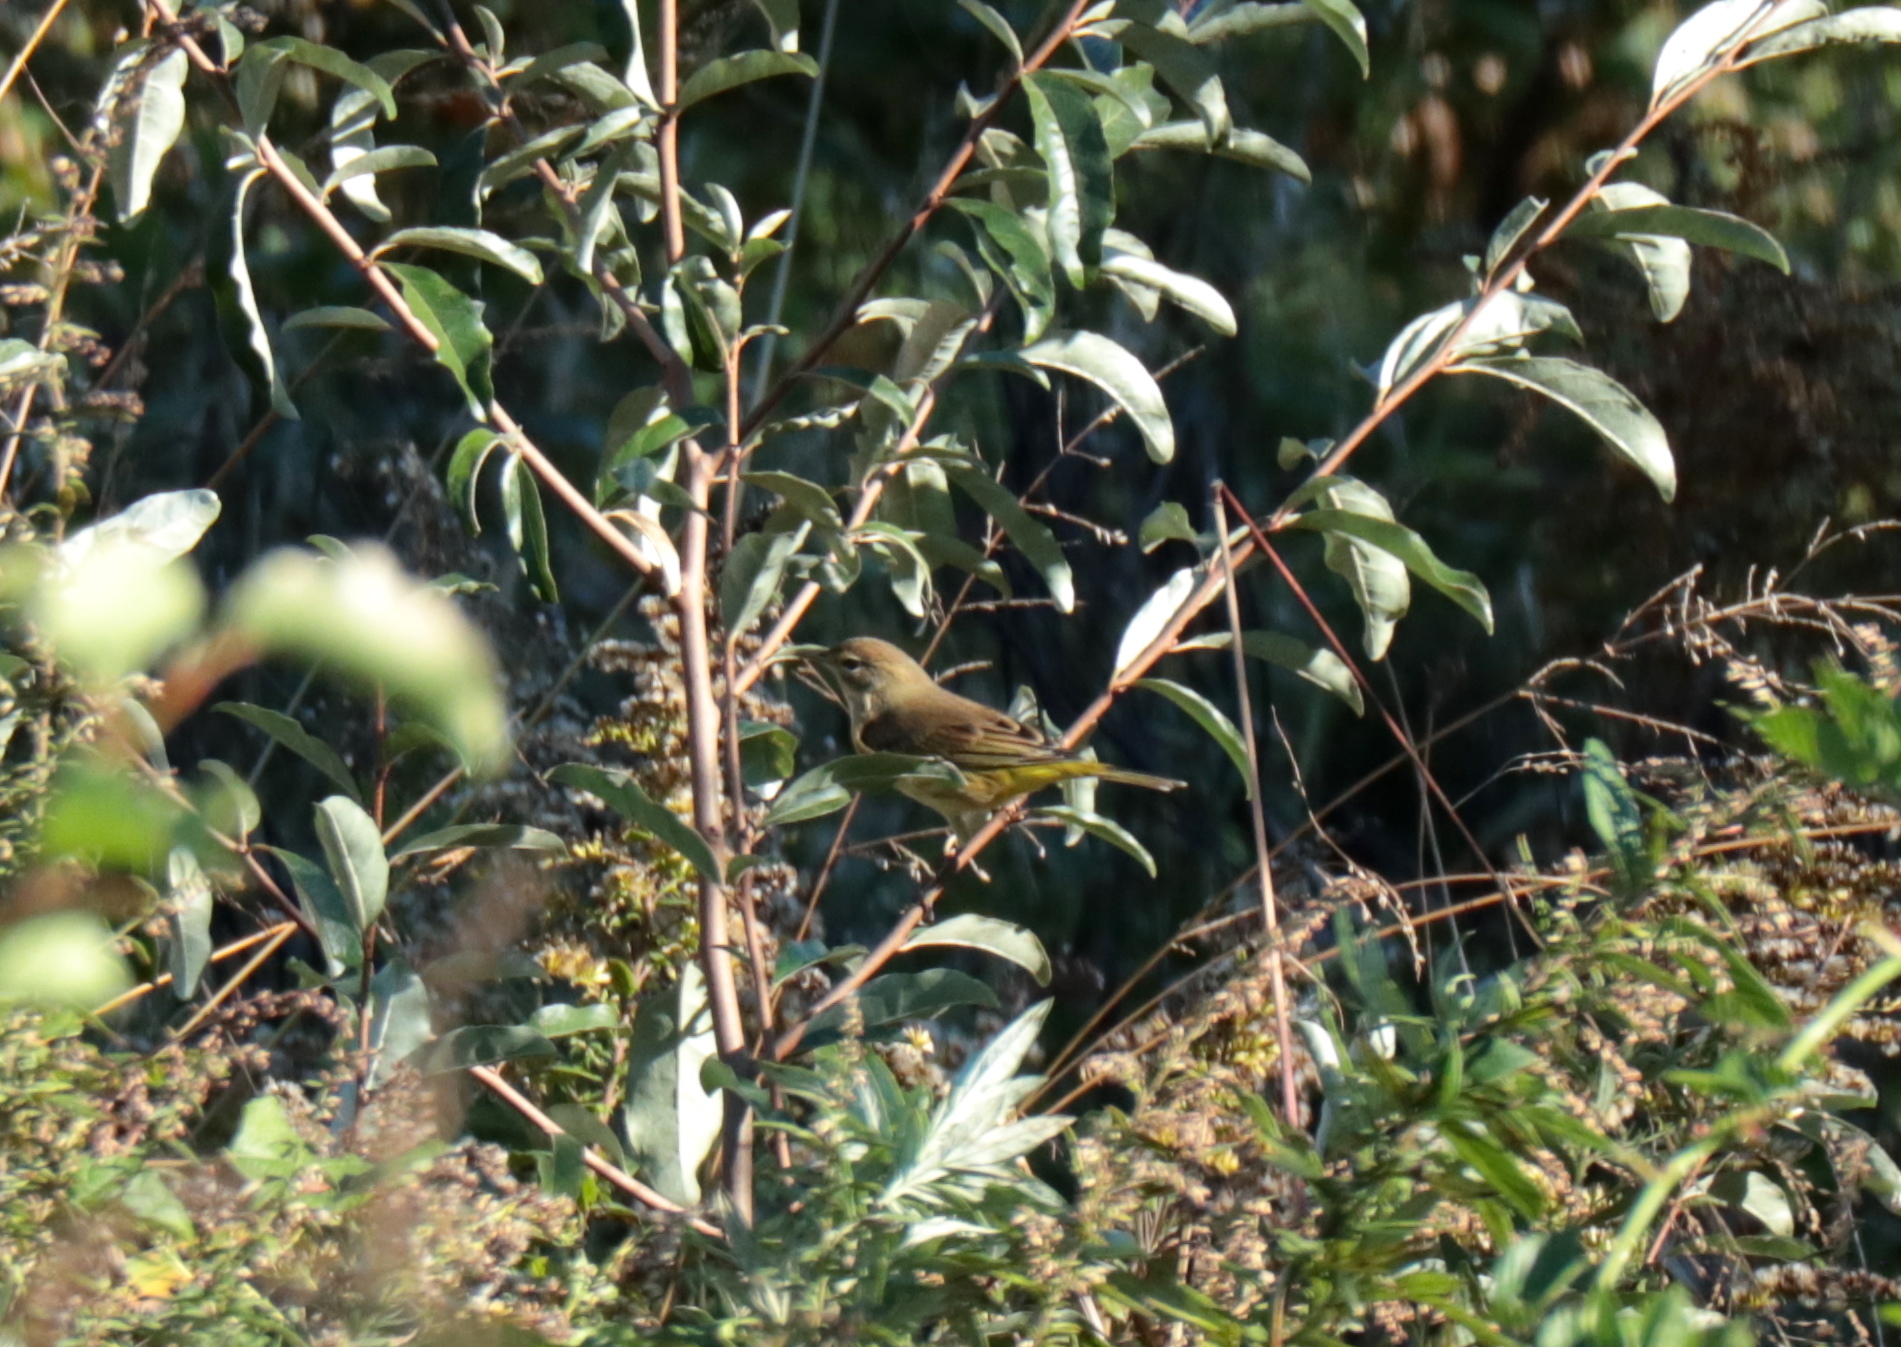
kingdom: Animalia
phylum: Chordata
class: Aves
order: Passeriformes
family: Parulidae
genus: Setophaga
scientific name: Setophaga palmarum
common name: Palm warbler
